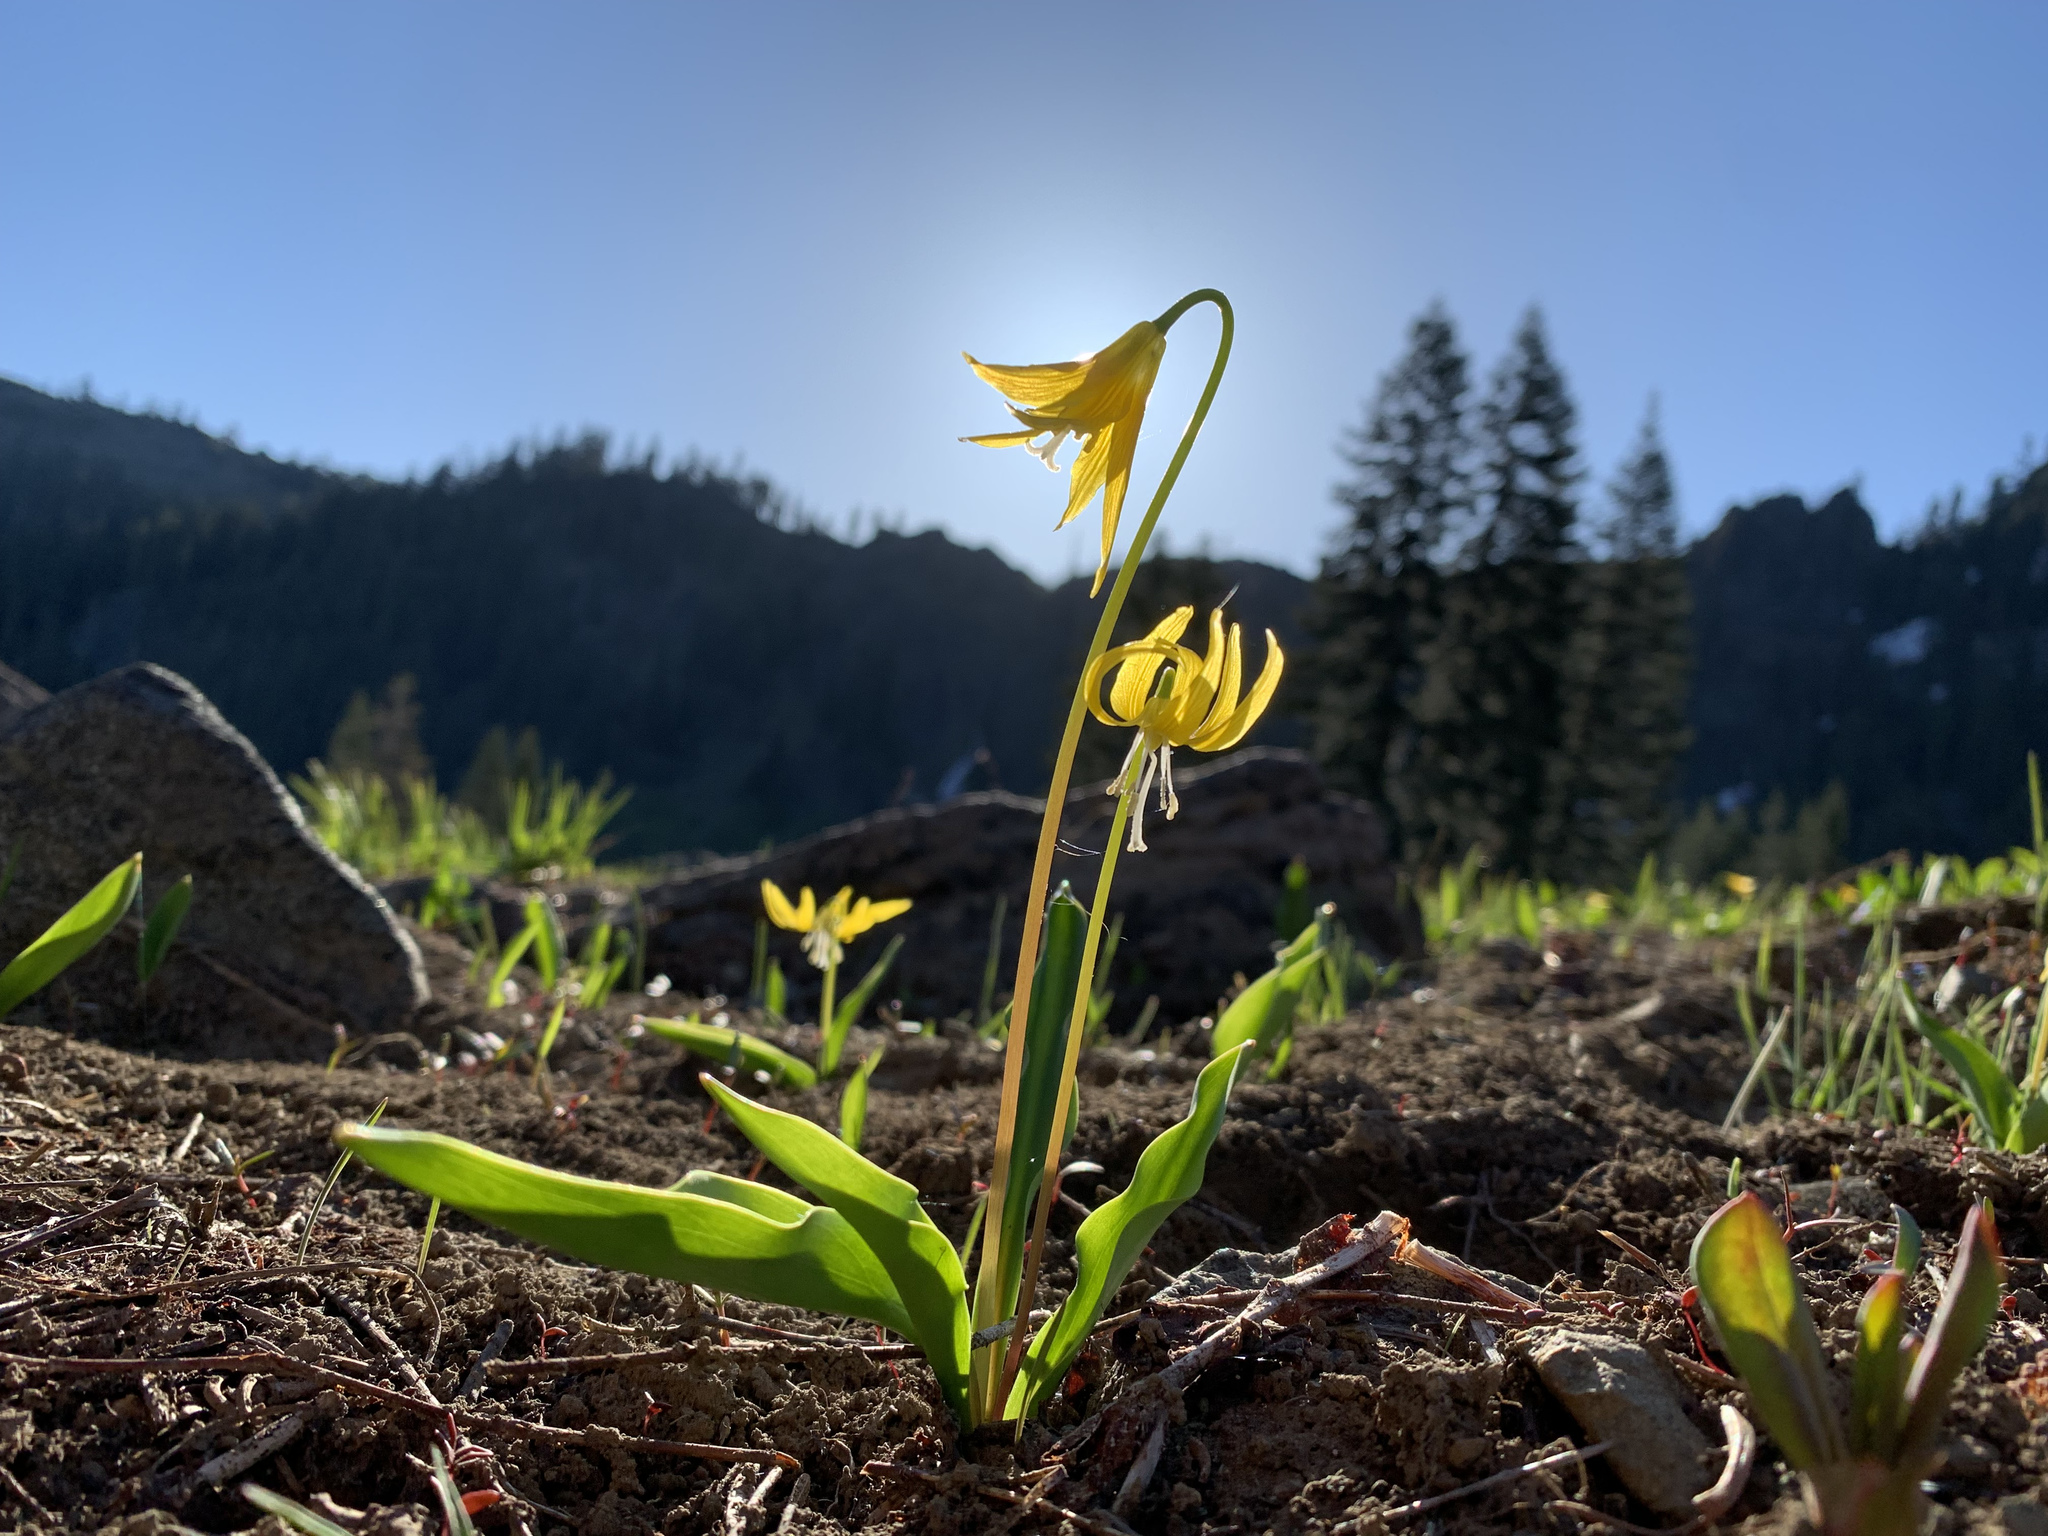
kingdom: Plantae
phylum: Tracheophyta
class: Liliopsida
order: Liliales
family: Liliaceae
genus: Erythronium
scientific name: Erythronium grandiflorum
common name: Avalanche-lily
